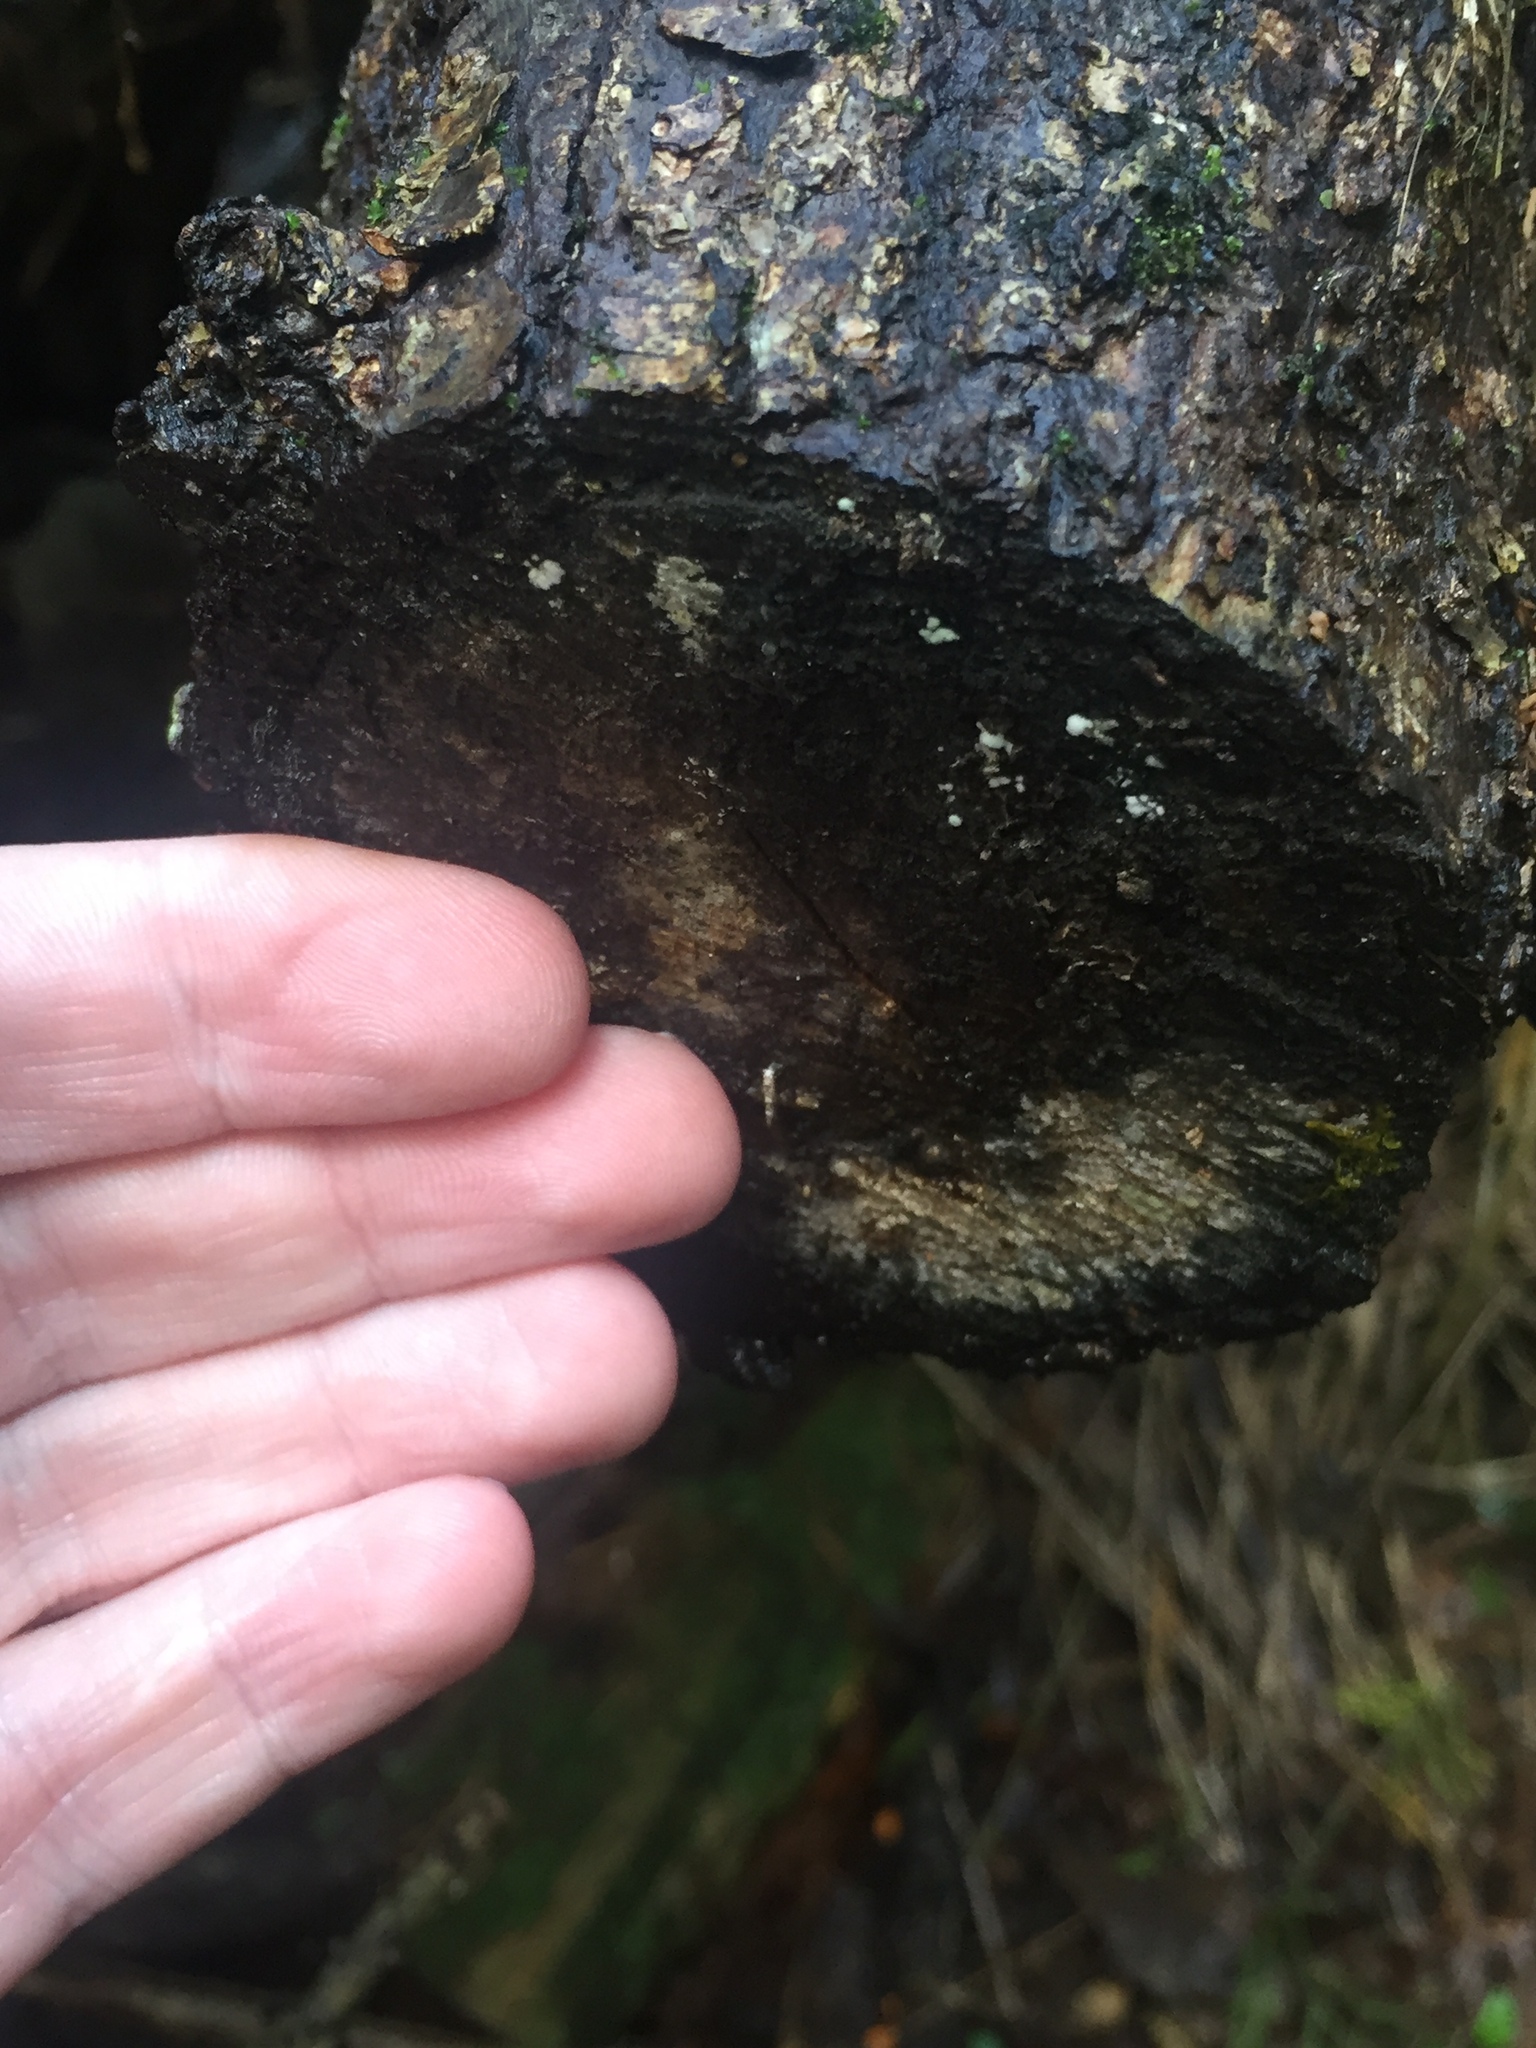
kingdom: Animalia
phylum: Arthropoda
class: Insecta
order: Lepidoptera
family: Tineidae
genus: Eschatotypa
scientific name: Eschatotypa derogatella
